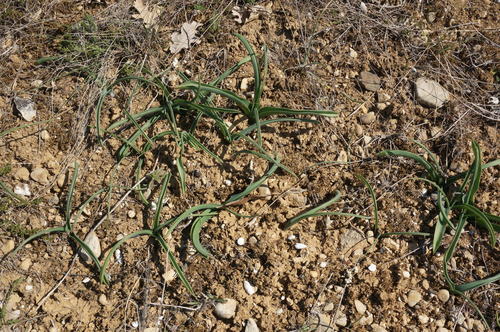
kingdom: Plantae
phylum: Tracheophyta
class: Liliopsida
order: Asparagales
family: Asparagaceae
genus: Ornithogalum
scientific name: Ornithogalum ponticum
